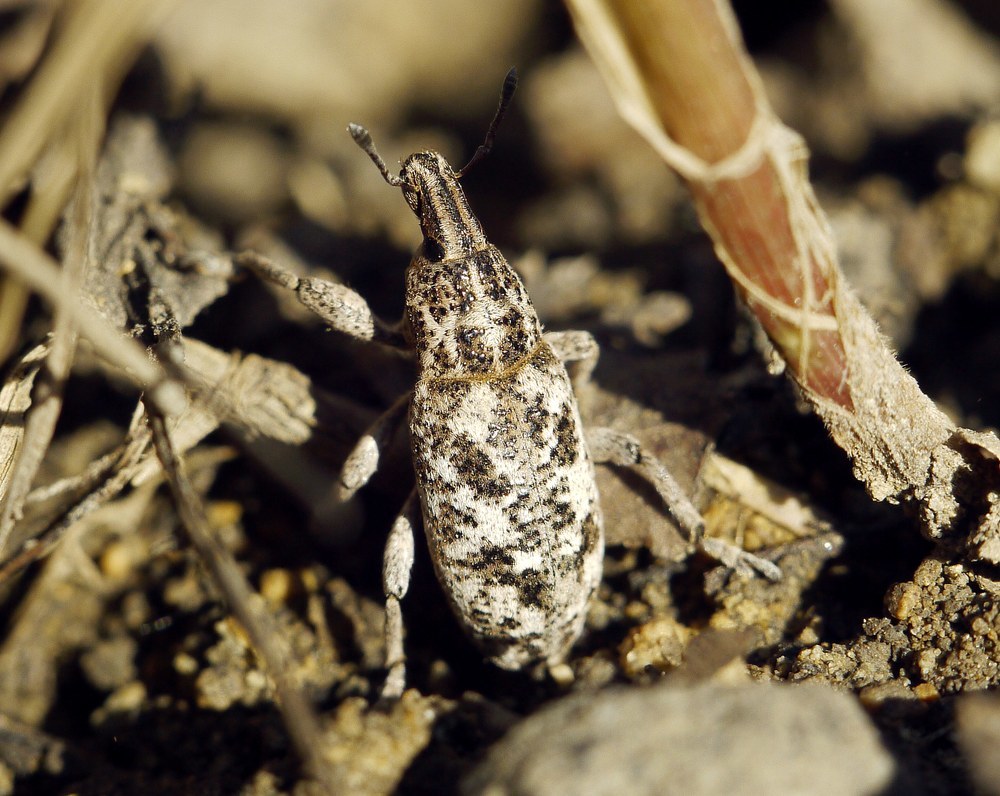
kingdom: Animalia
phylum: Arthropoda
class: Insecta
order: Coleoptera
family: Curculionidae
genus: Cyphocleonus
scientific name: Cyphocleonus dealbatus
